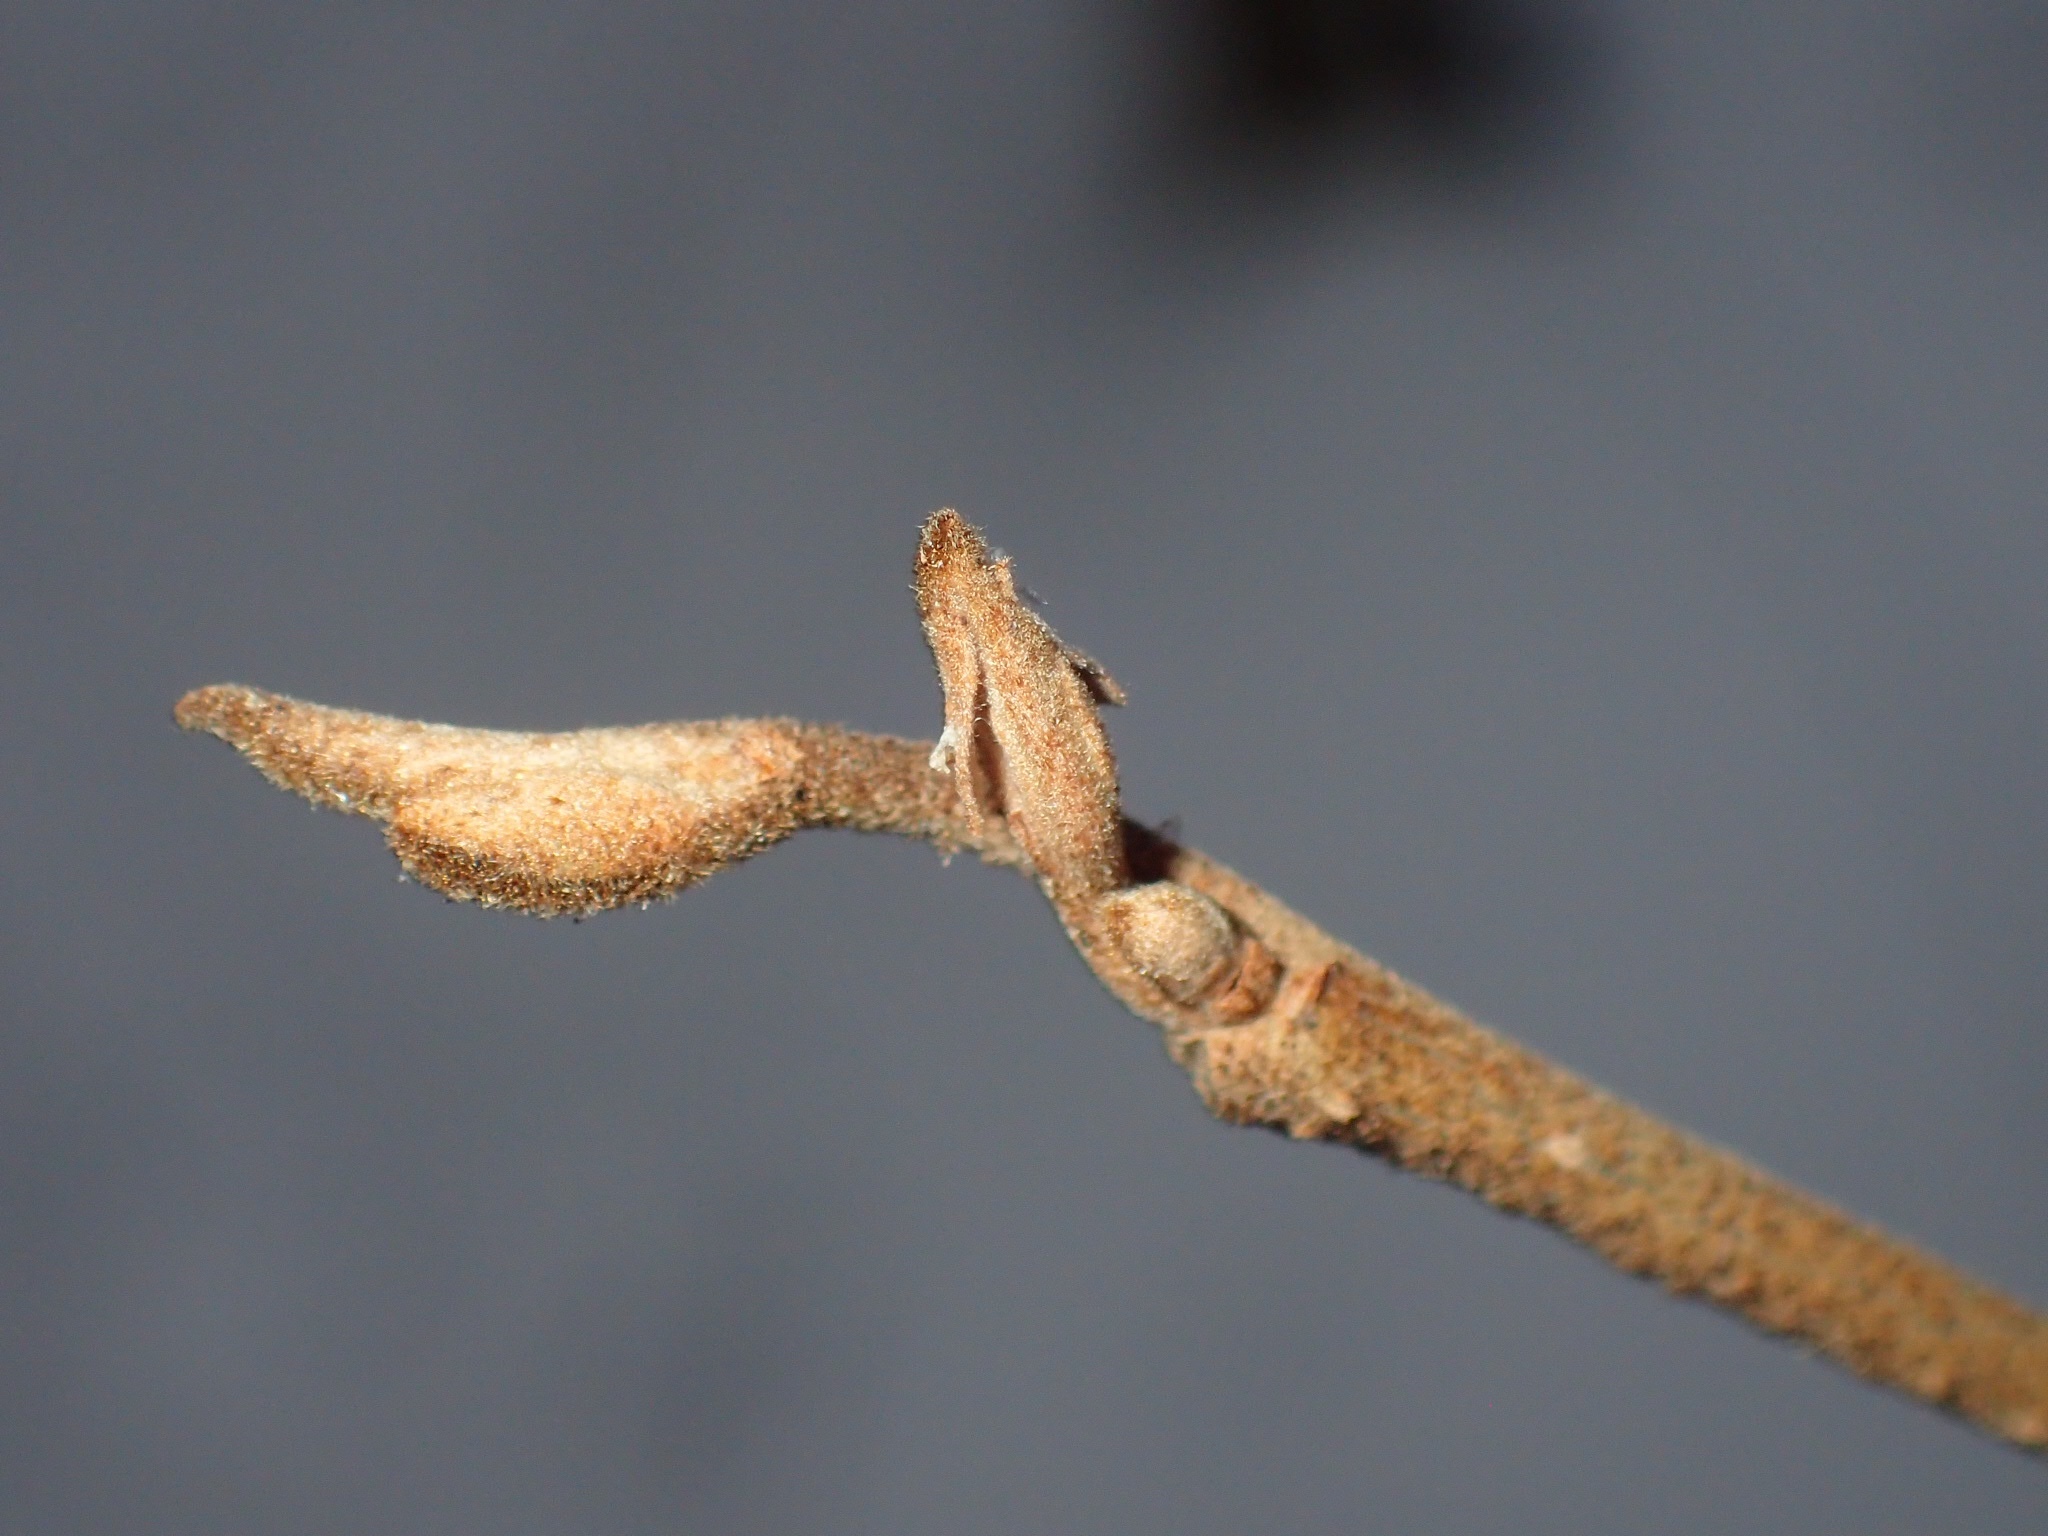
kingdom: Plantae
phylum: Tracheophyta
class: Magnoliopsida
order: Saxifragales
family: Hamamelidaceae
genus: Hamamelis
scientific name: Hamamelis virginiana
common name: Witch-hazel
